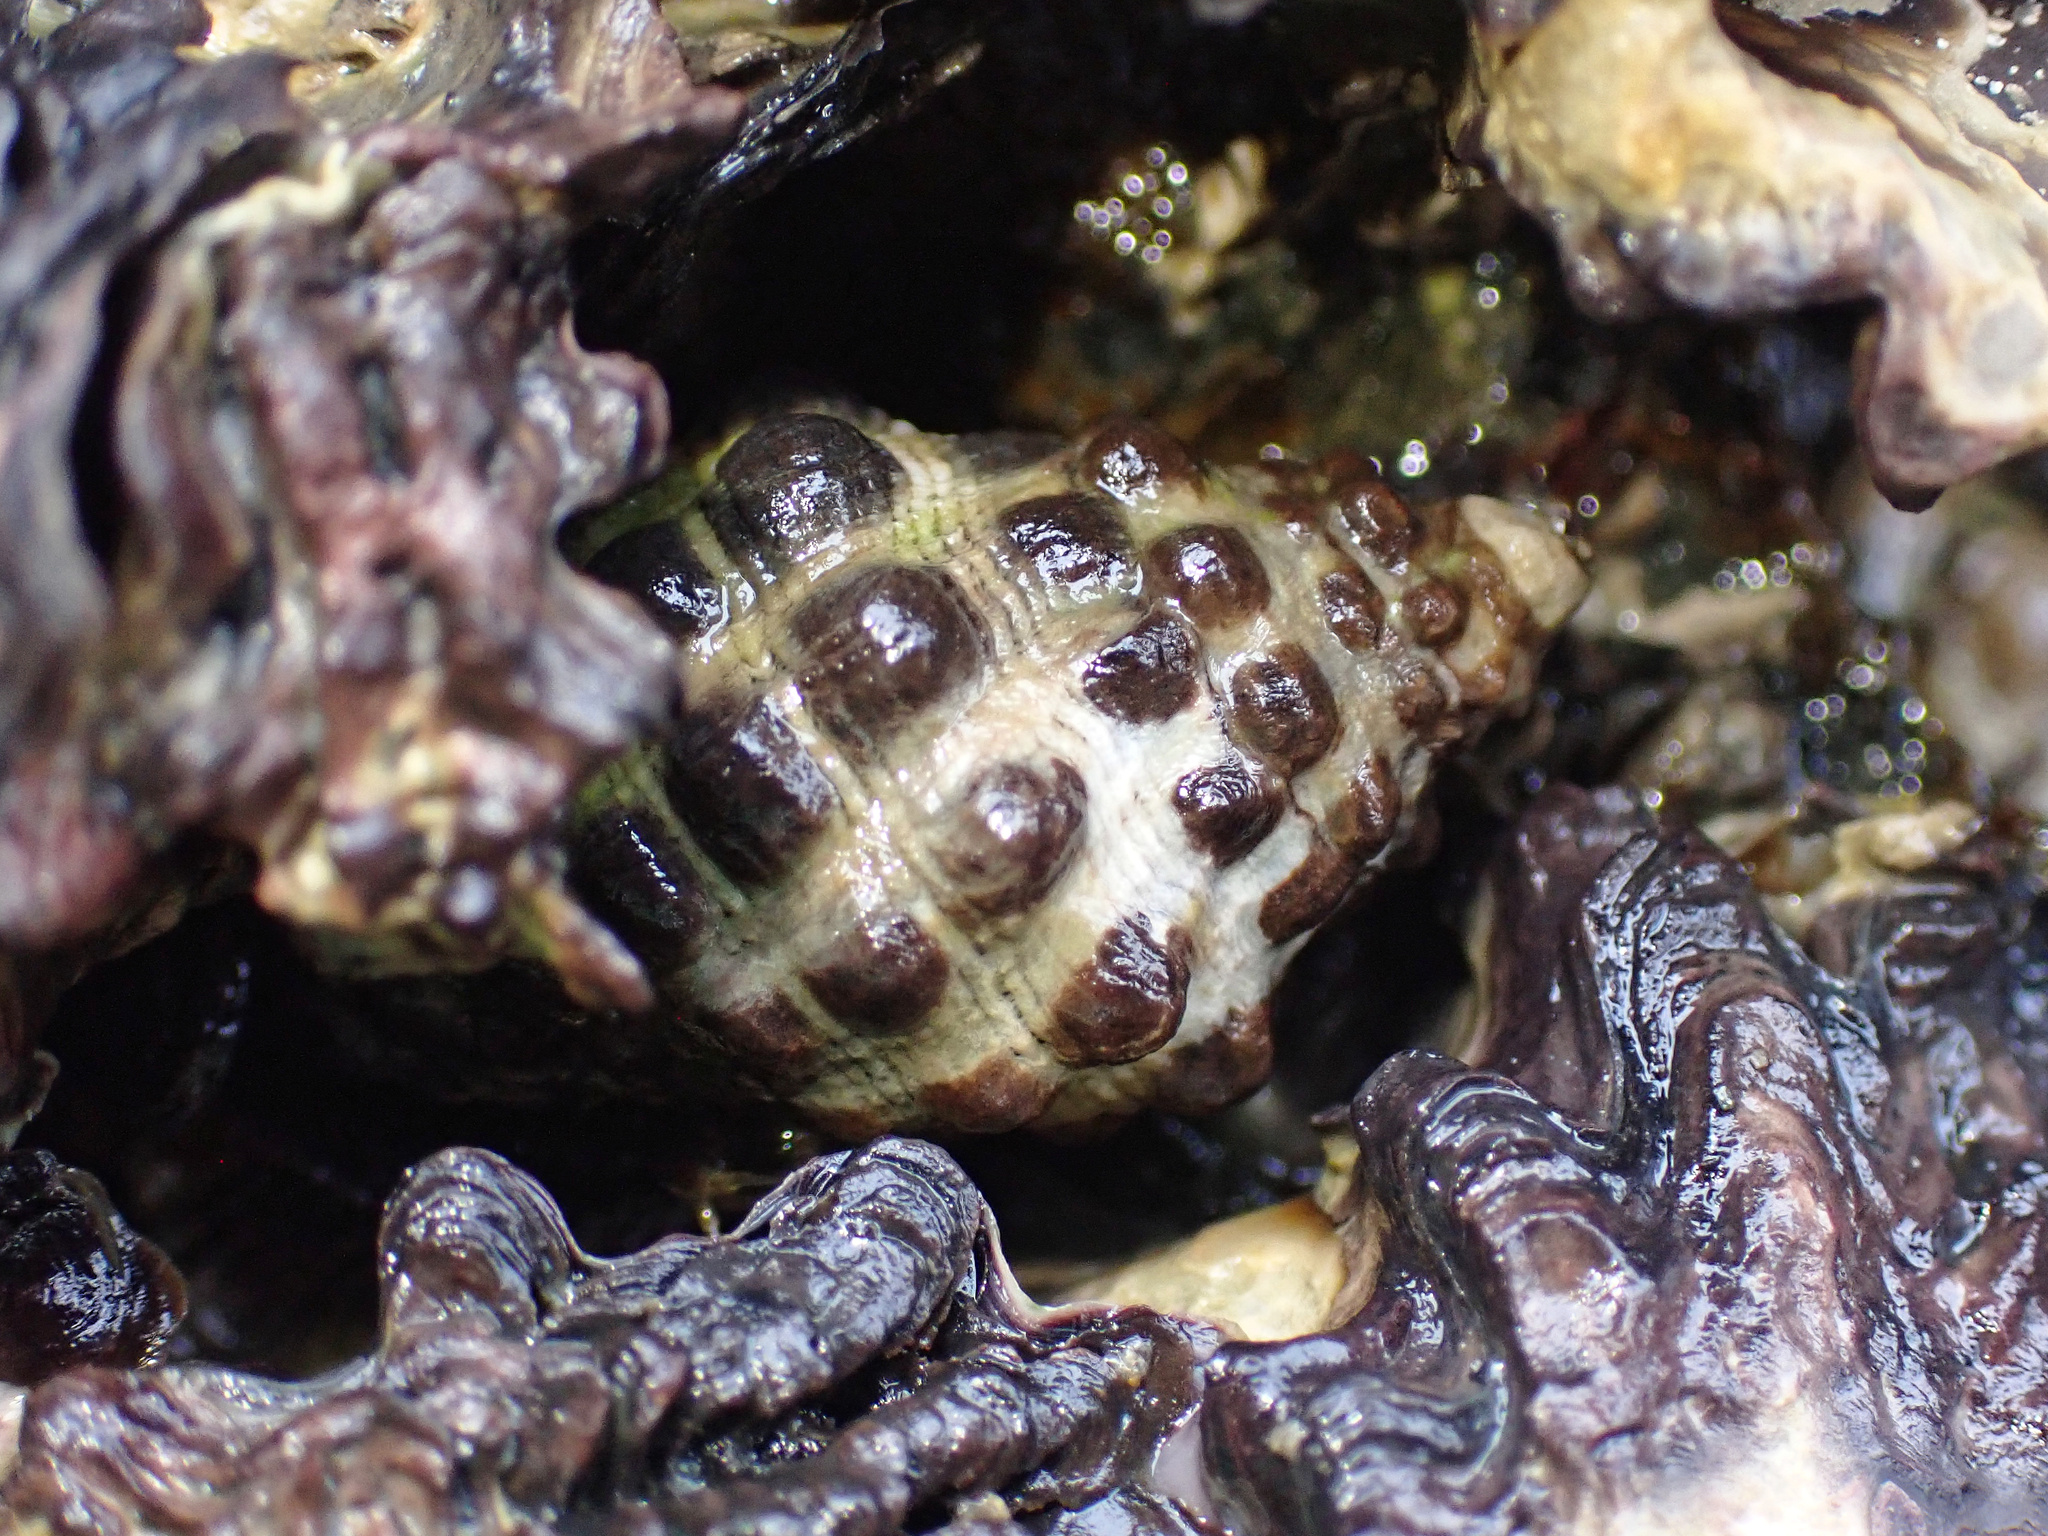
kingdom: Animalia
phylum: Mollusca
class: Gastropoda
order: Neogastropoda
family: Muricidae
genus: Tenguella
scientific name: Tenguella marginalba
